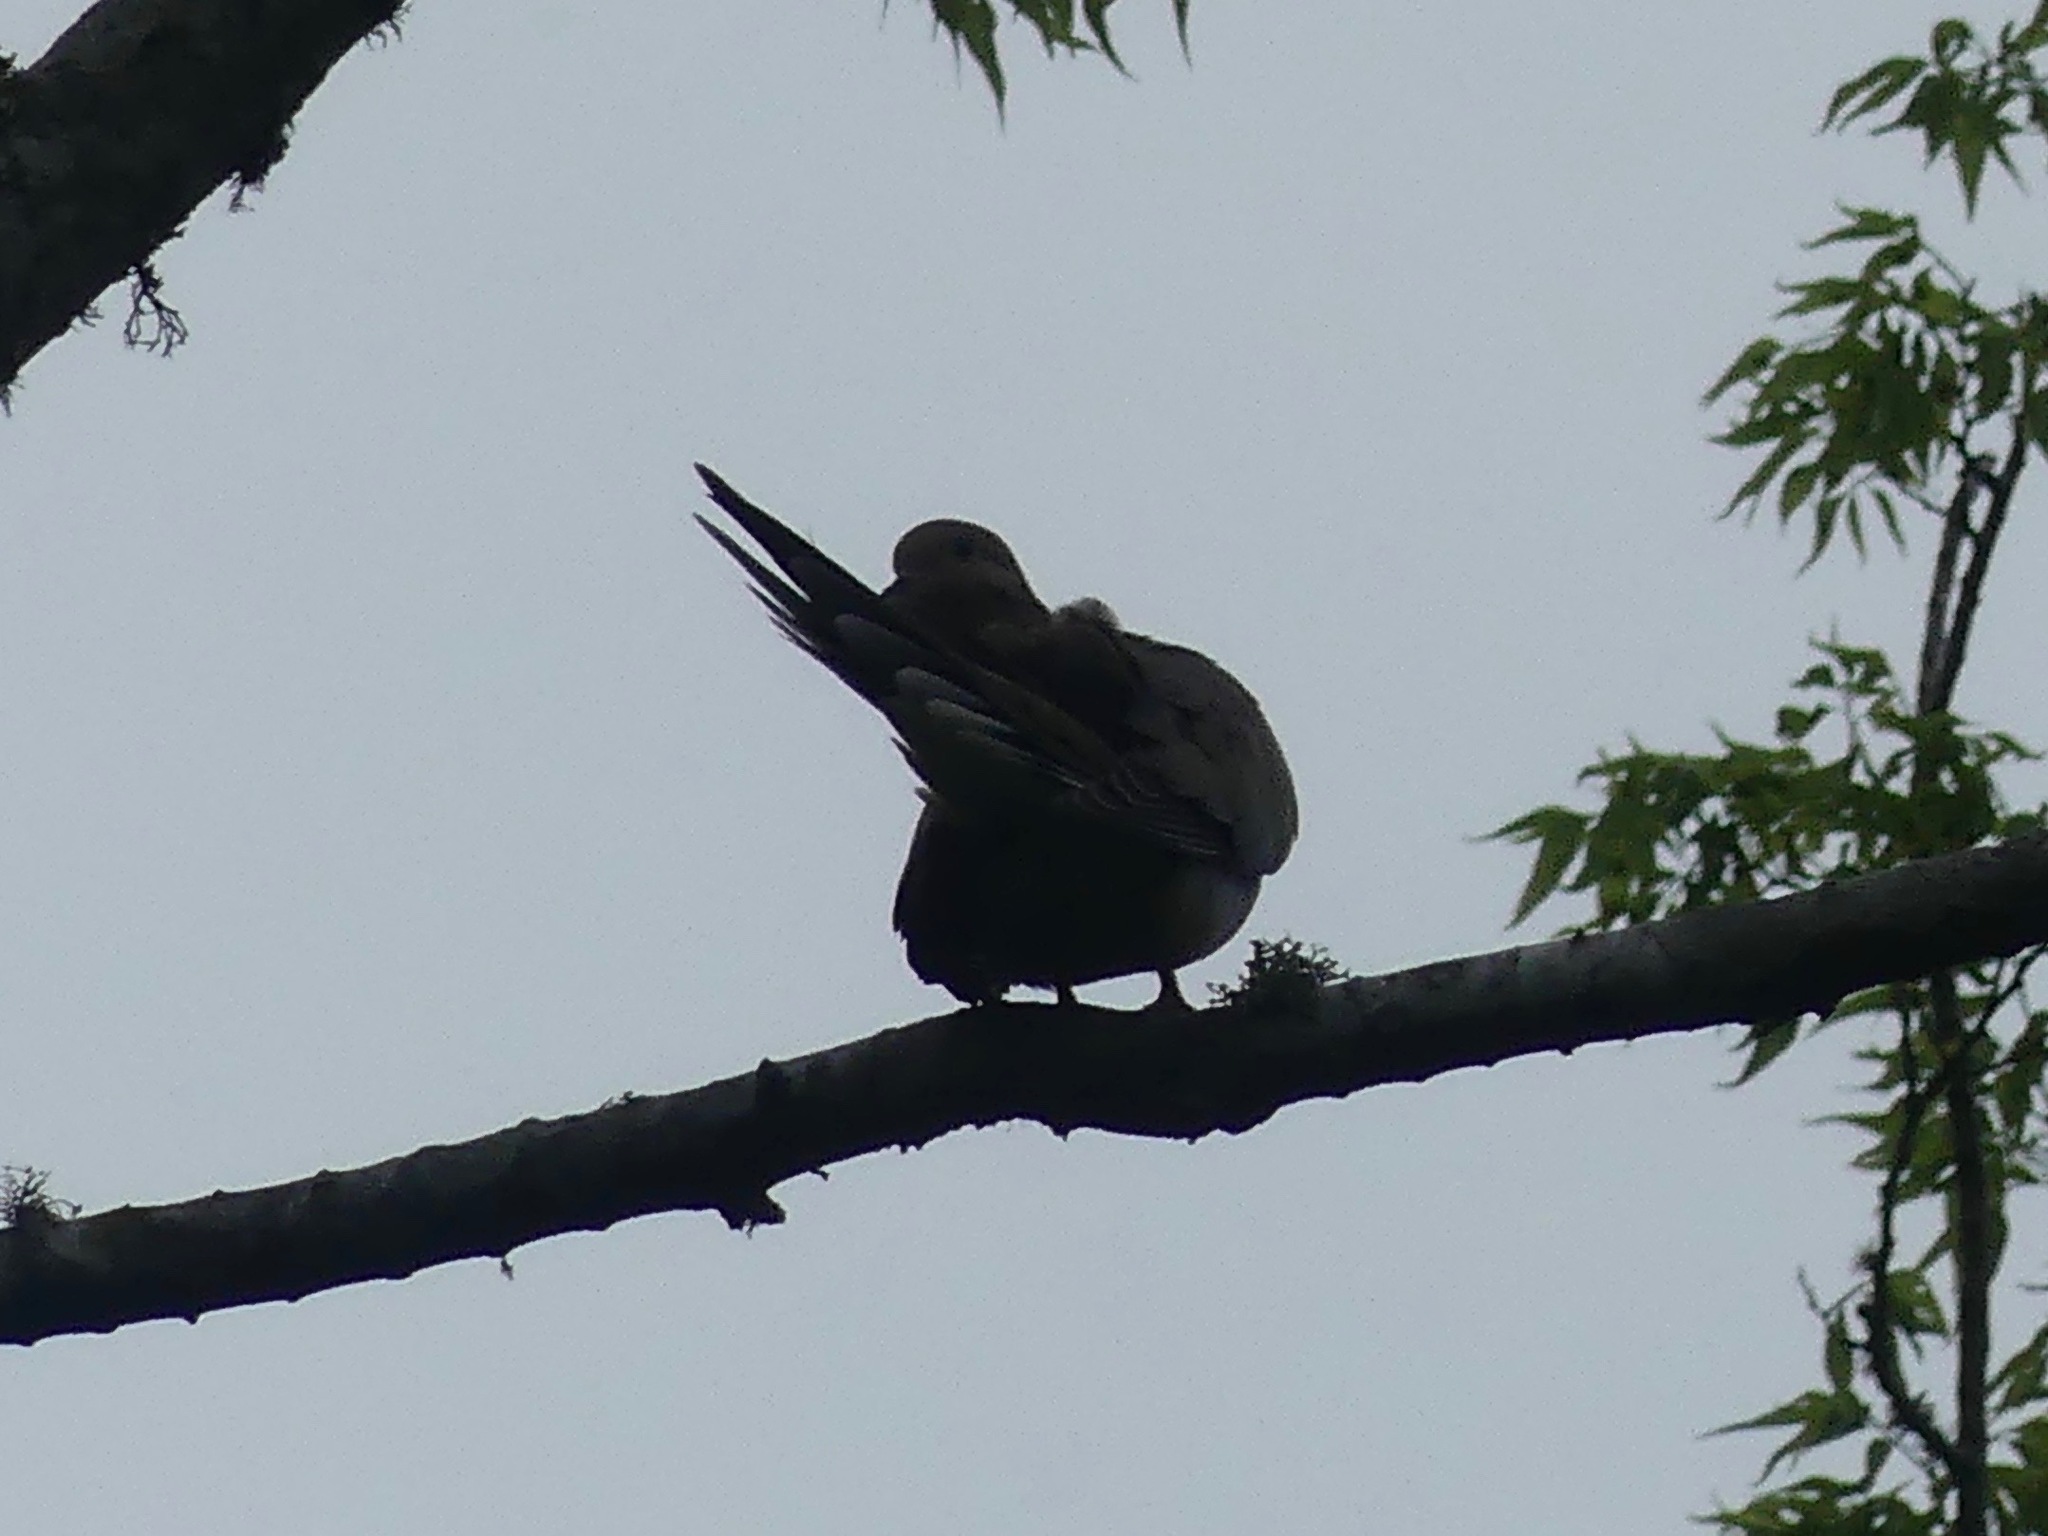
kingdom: Animalia
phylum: Chordata
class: Aves
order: Columbiformes
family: Columbidae
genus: Zenaida
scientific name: Zenaida macroura
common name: Mourning dove
